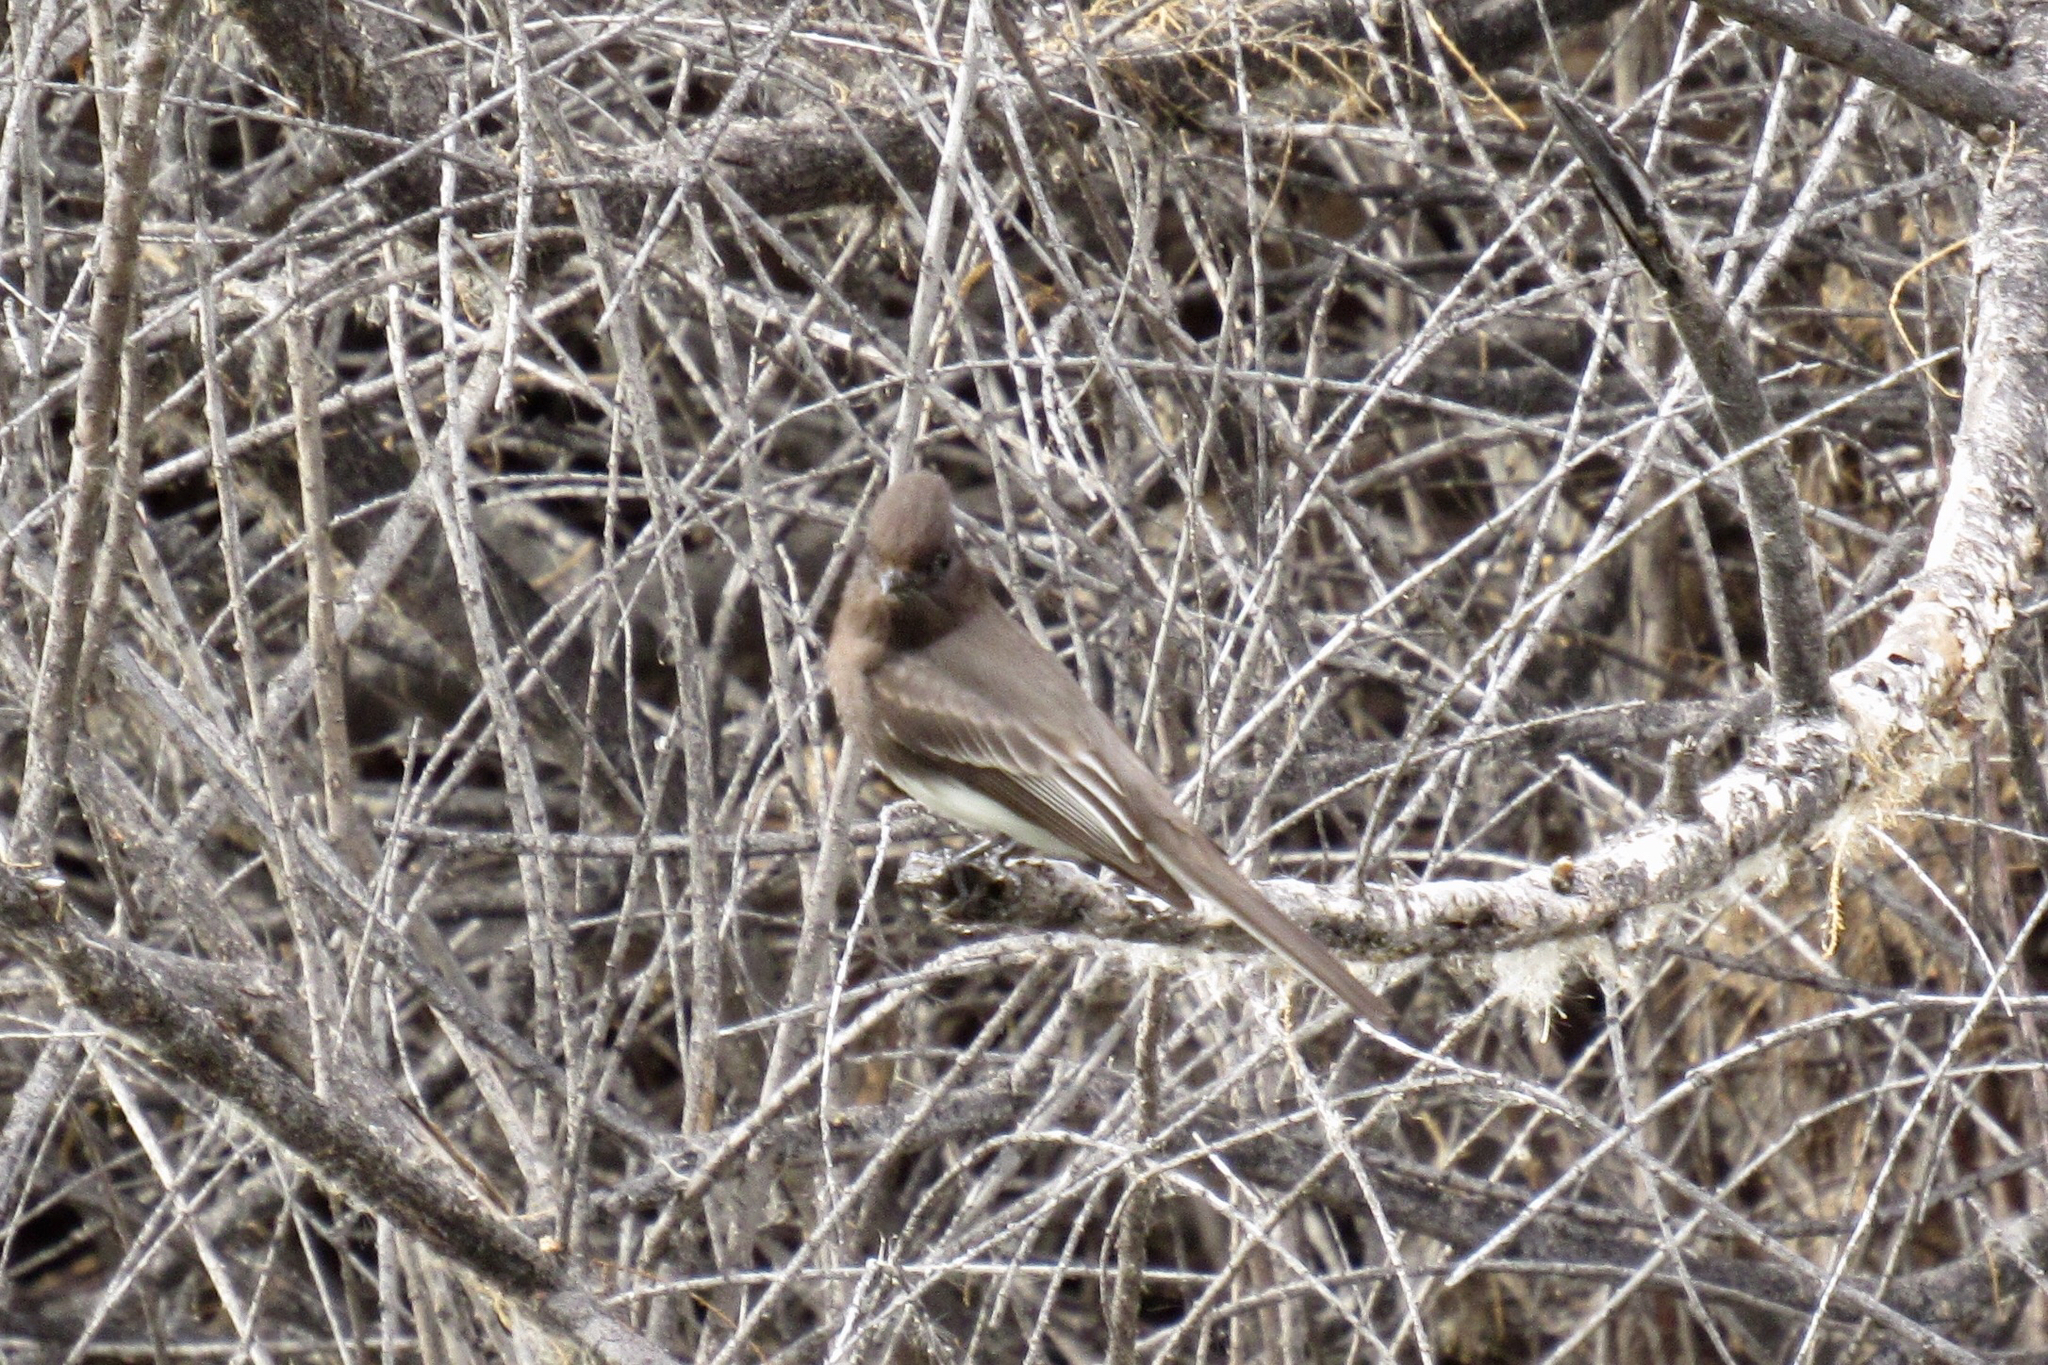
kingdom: Animalia
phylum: Chordata
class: Aves
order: Passeriformes
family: Tyrannidae
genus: Sayornis
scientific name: Sayornis nigricans
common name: Black phoebe
